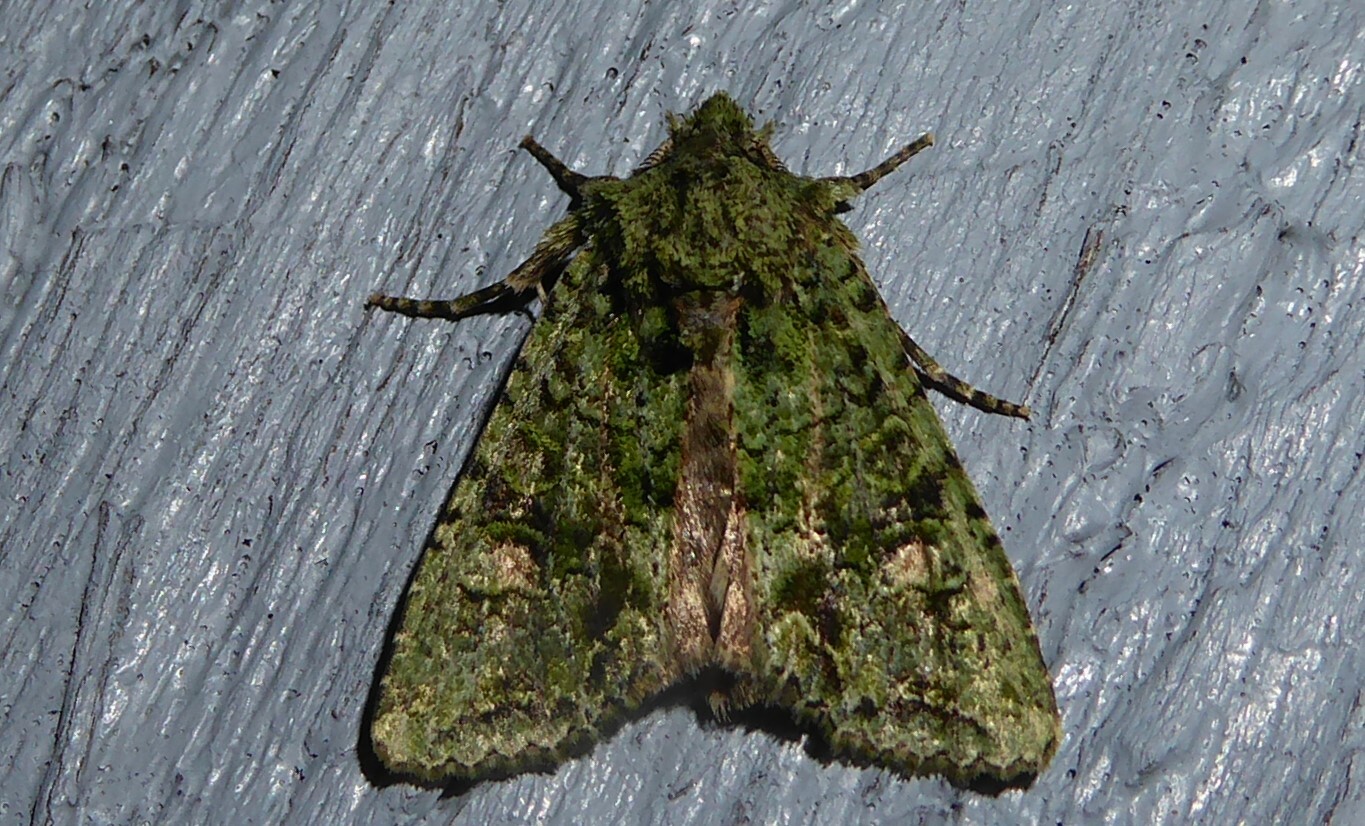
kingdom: Animalia
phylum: Arthropoda
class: Insecta
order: Lepidoptera
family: Noctuidae
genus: Ichneutica
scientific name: Ichneutica
